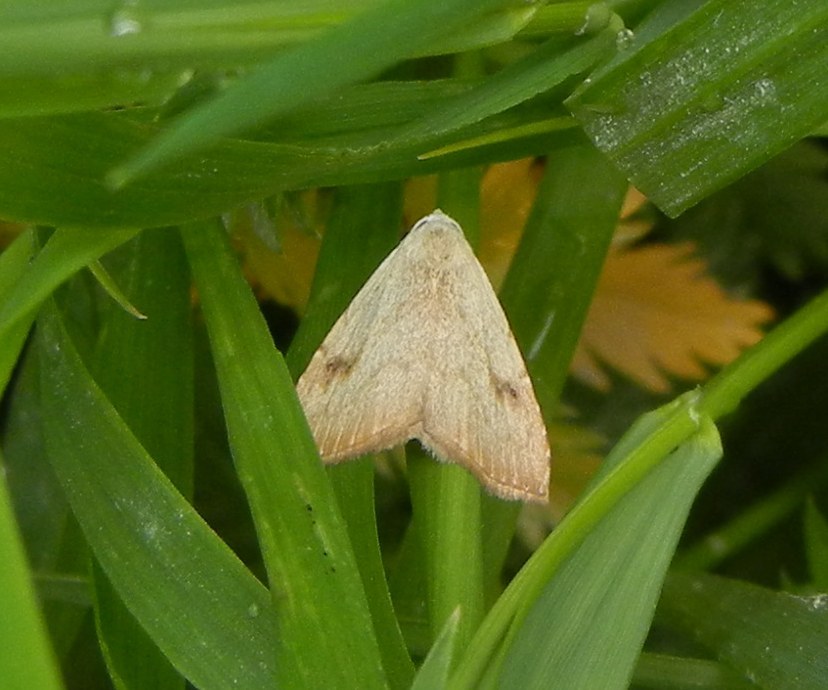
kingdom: Animalia
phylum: Arthropoda
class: Insecta
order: Lepidoptera
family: Erebidae
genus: Rivula
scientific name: Rivula sericealis
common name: Straw dot
